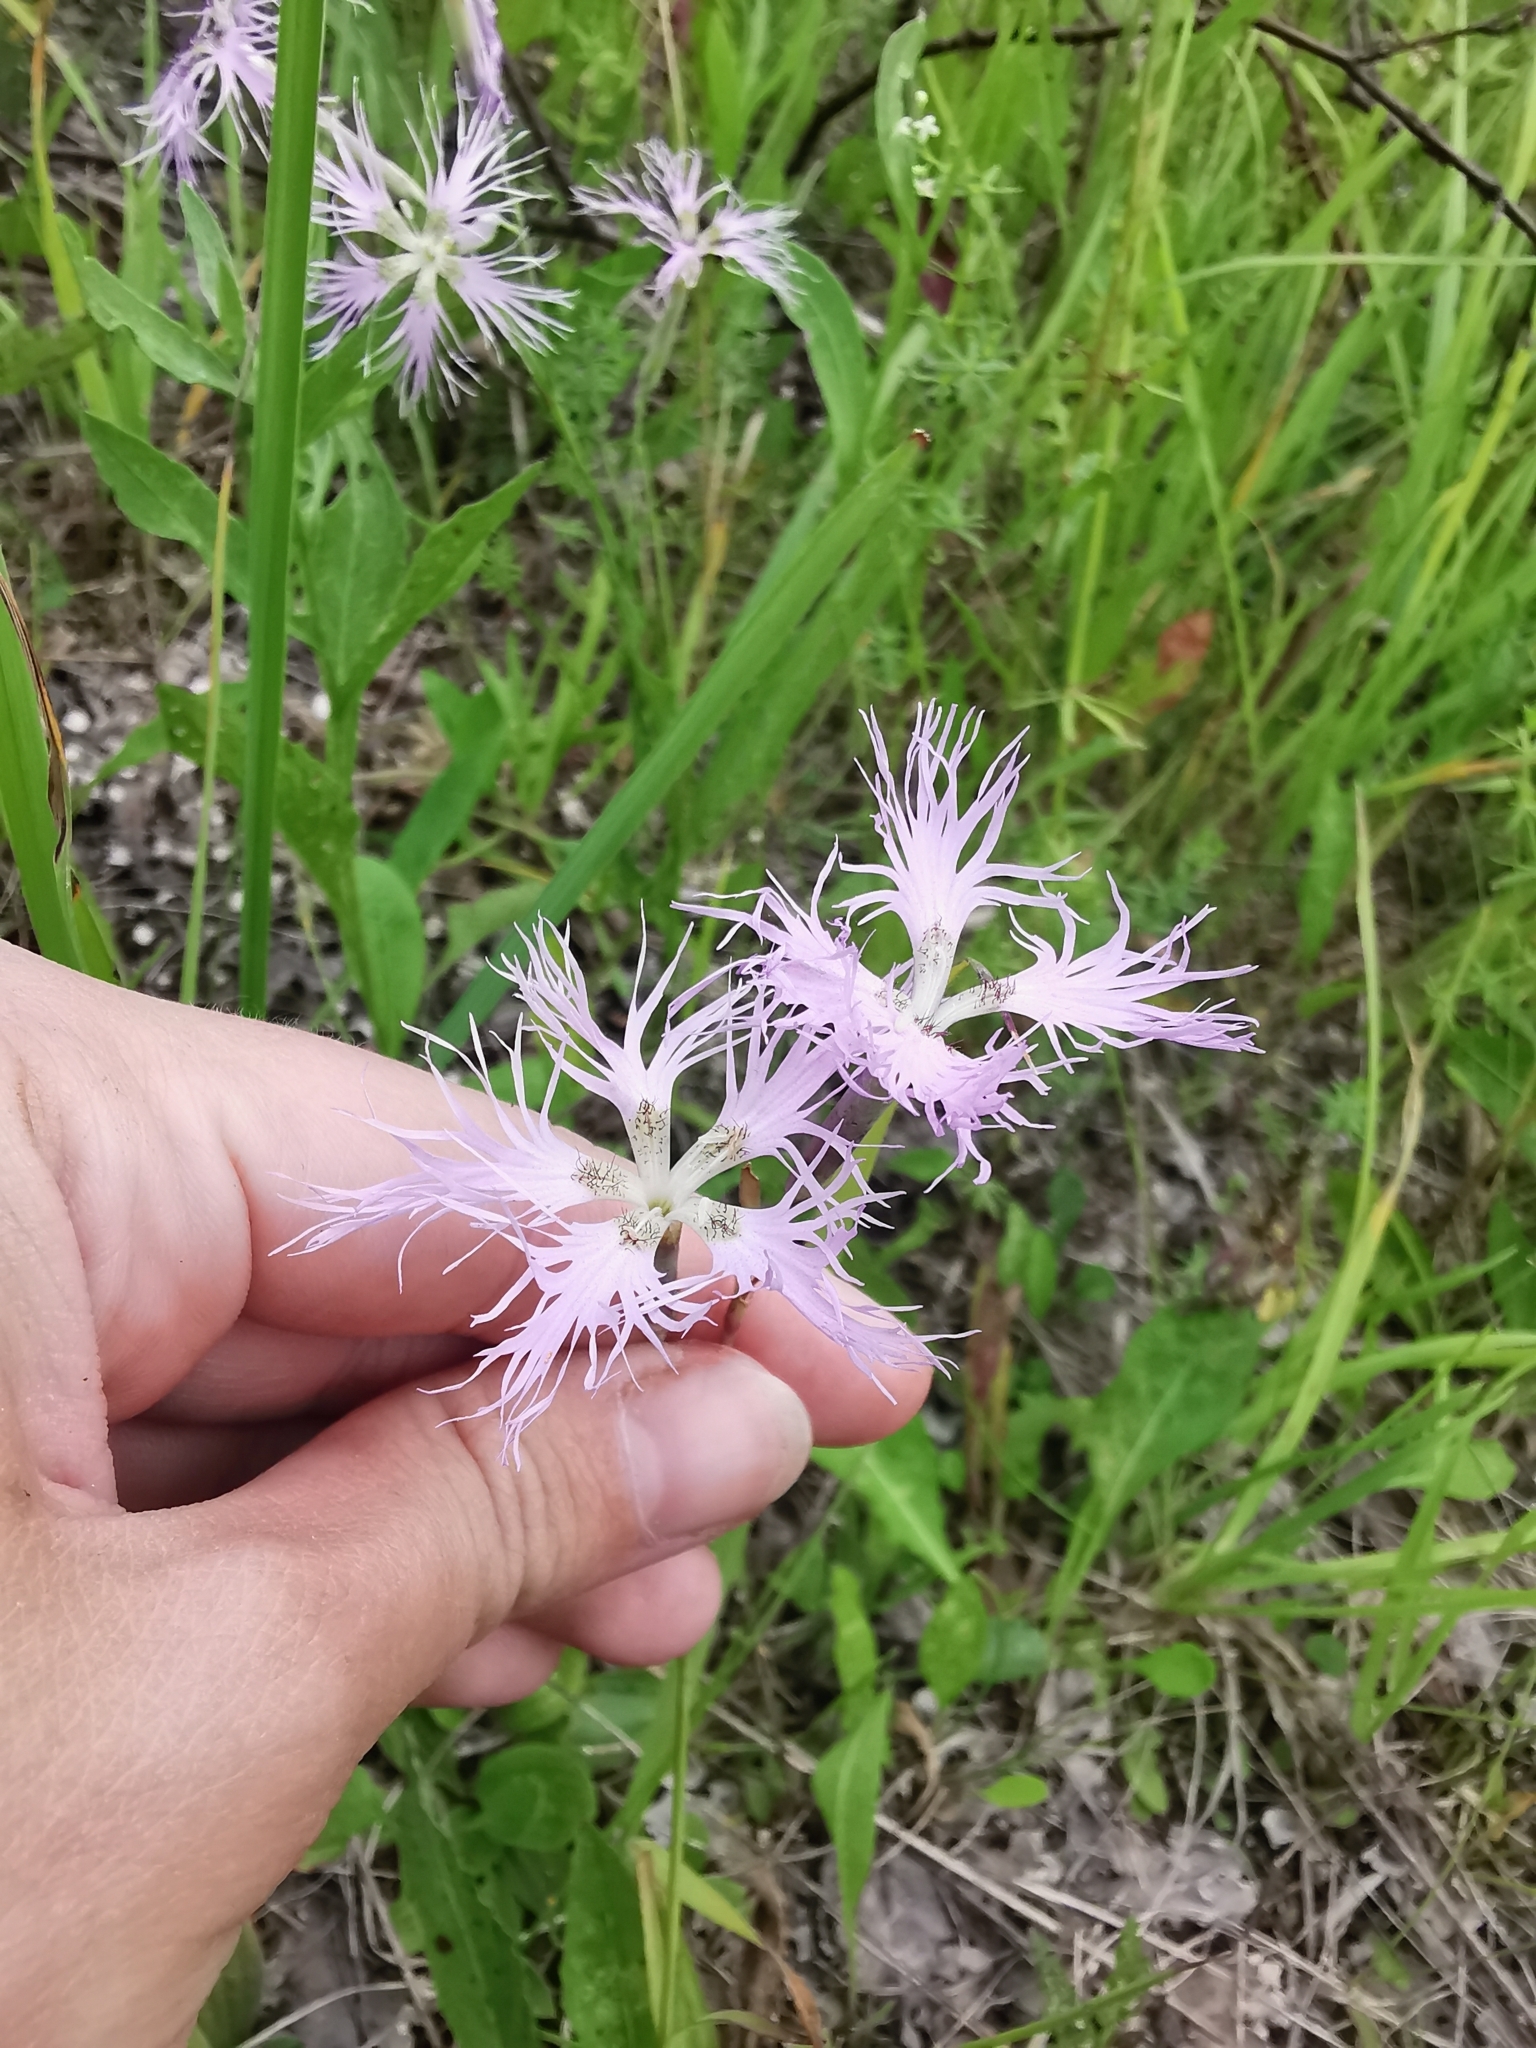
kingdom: Plantae
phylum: Tracheophyta
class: Magnoliopsida
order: Caryophyllales
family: Caryophyllaceae
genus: Dianthus
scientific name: Dianthus superbus
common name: Fringed pink
